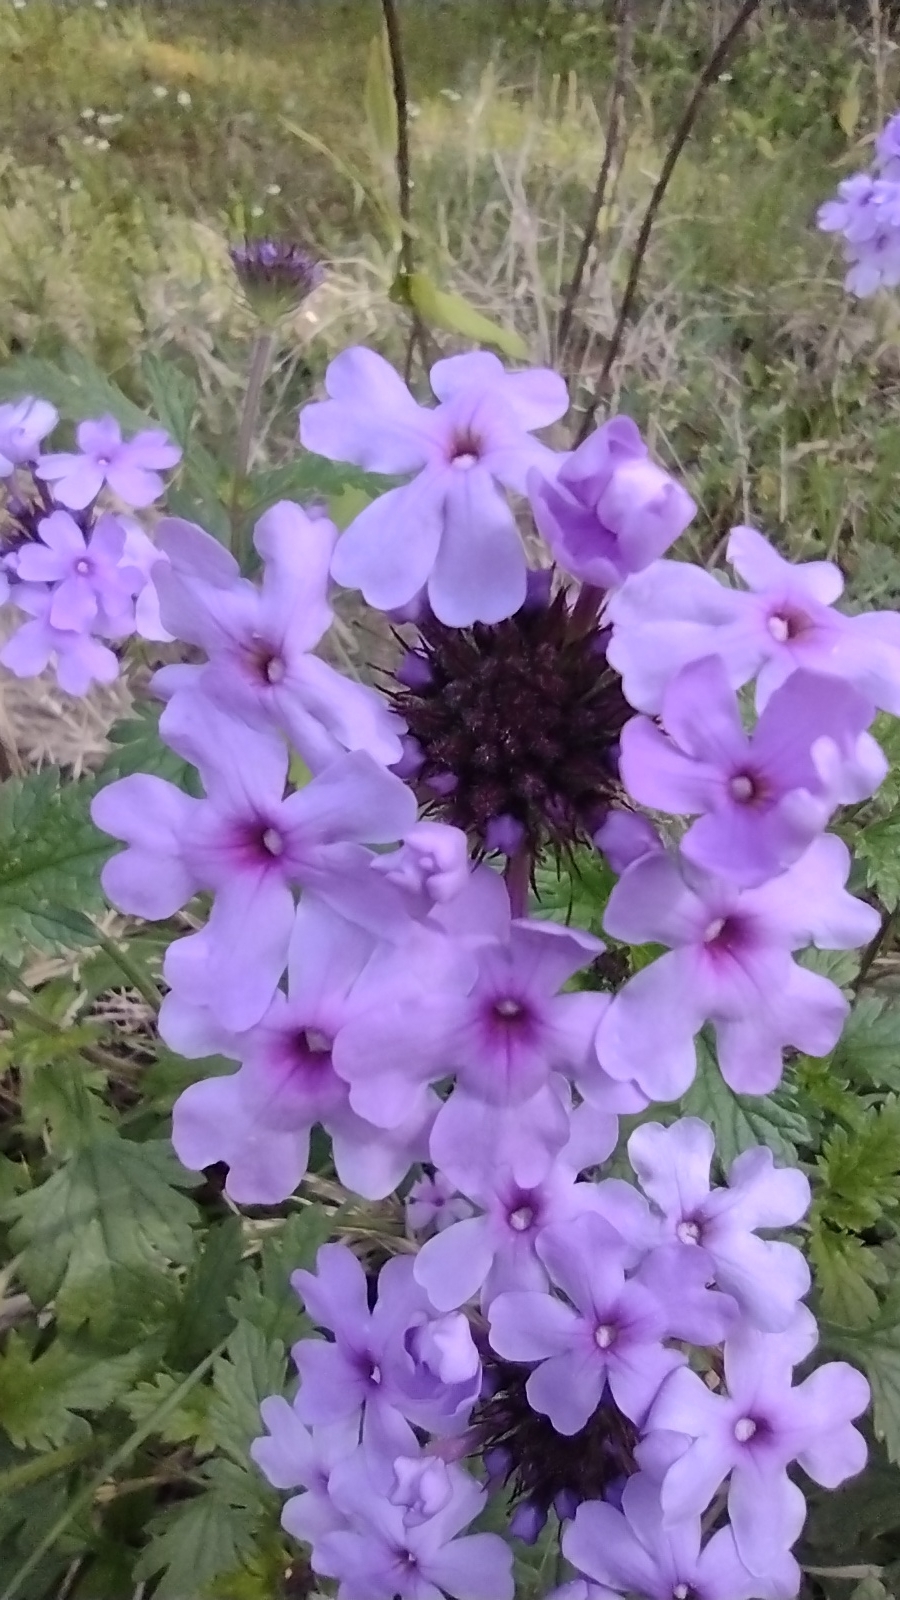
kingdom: Plantae
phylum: Tracheophyta
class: Magnoliopsida
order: Lamiales
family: Verbenaceae
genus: Verbena
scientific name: Verbena canadensis
